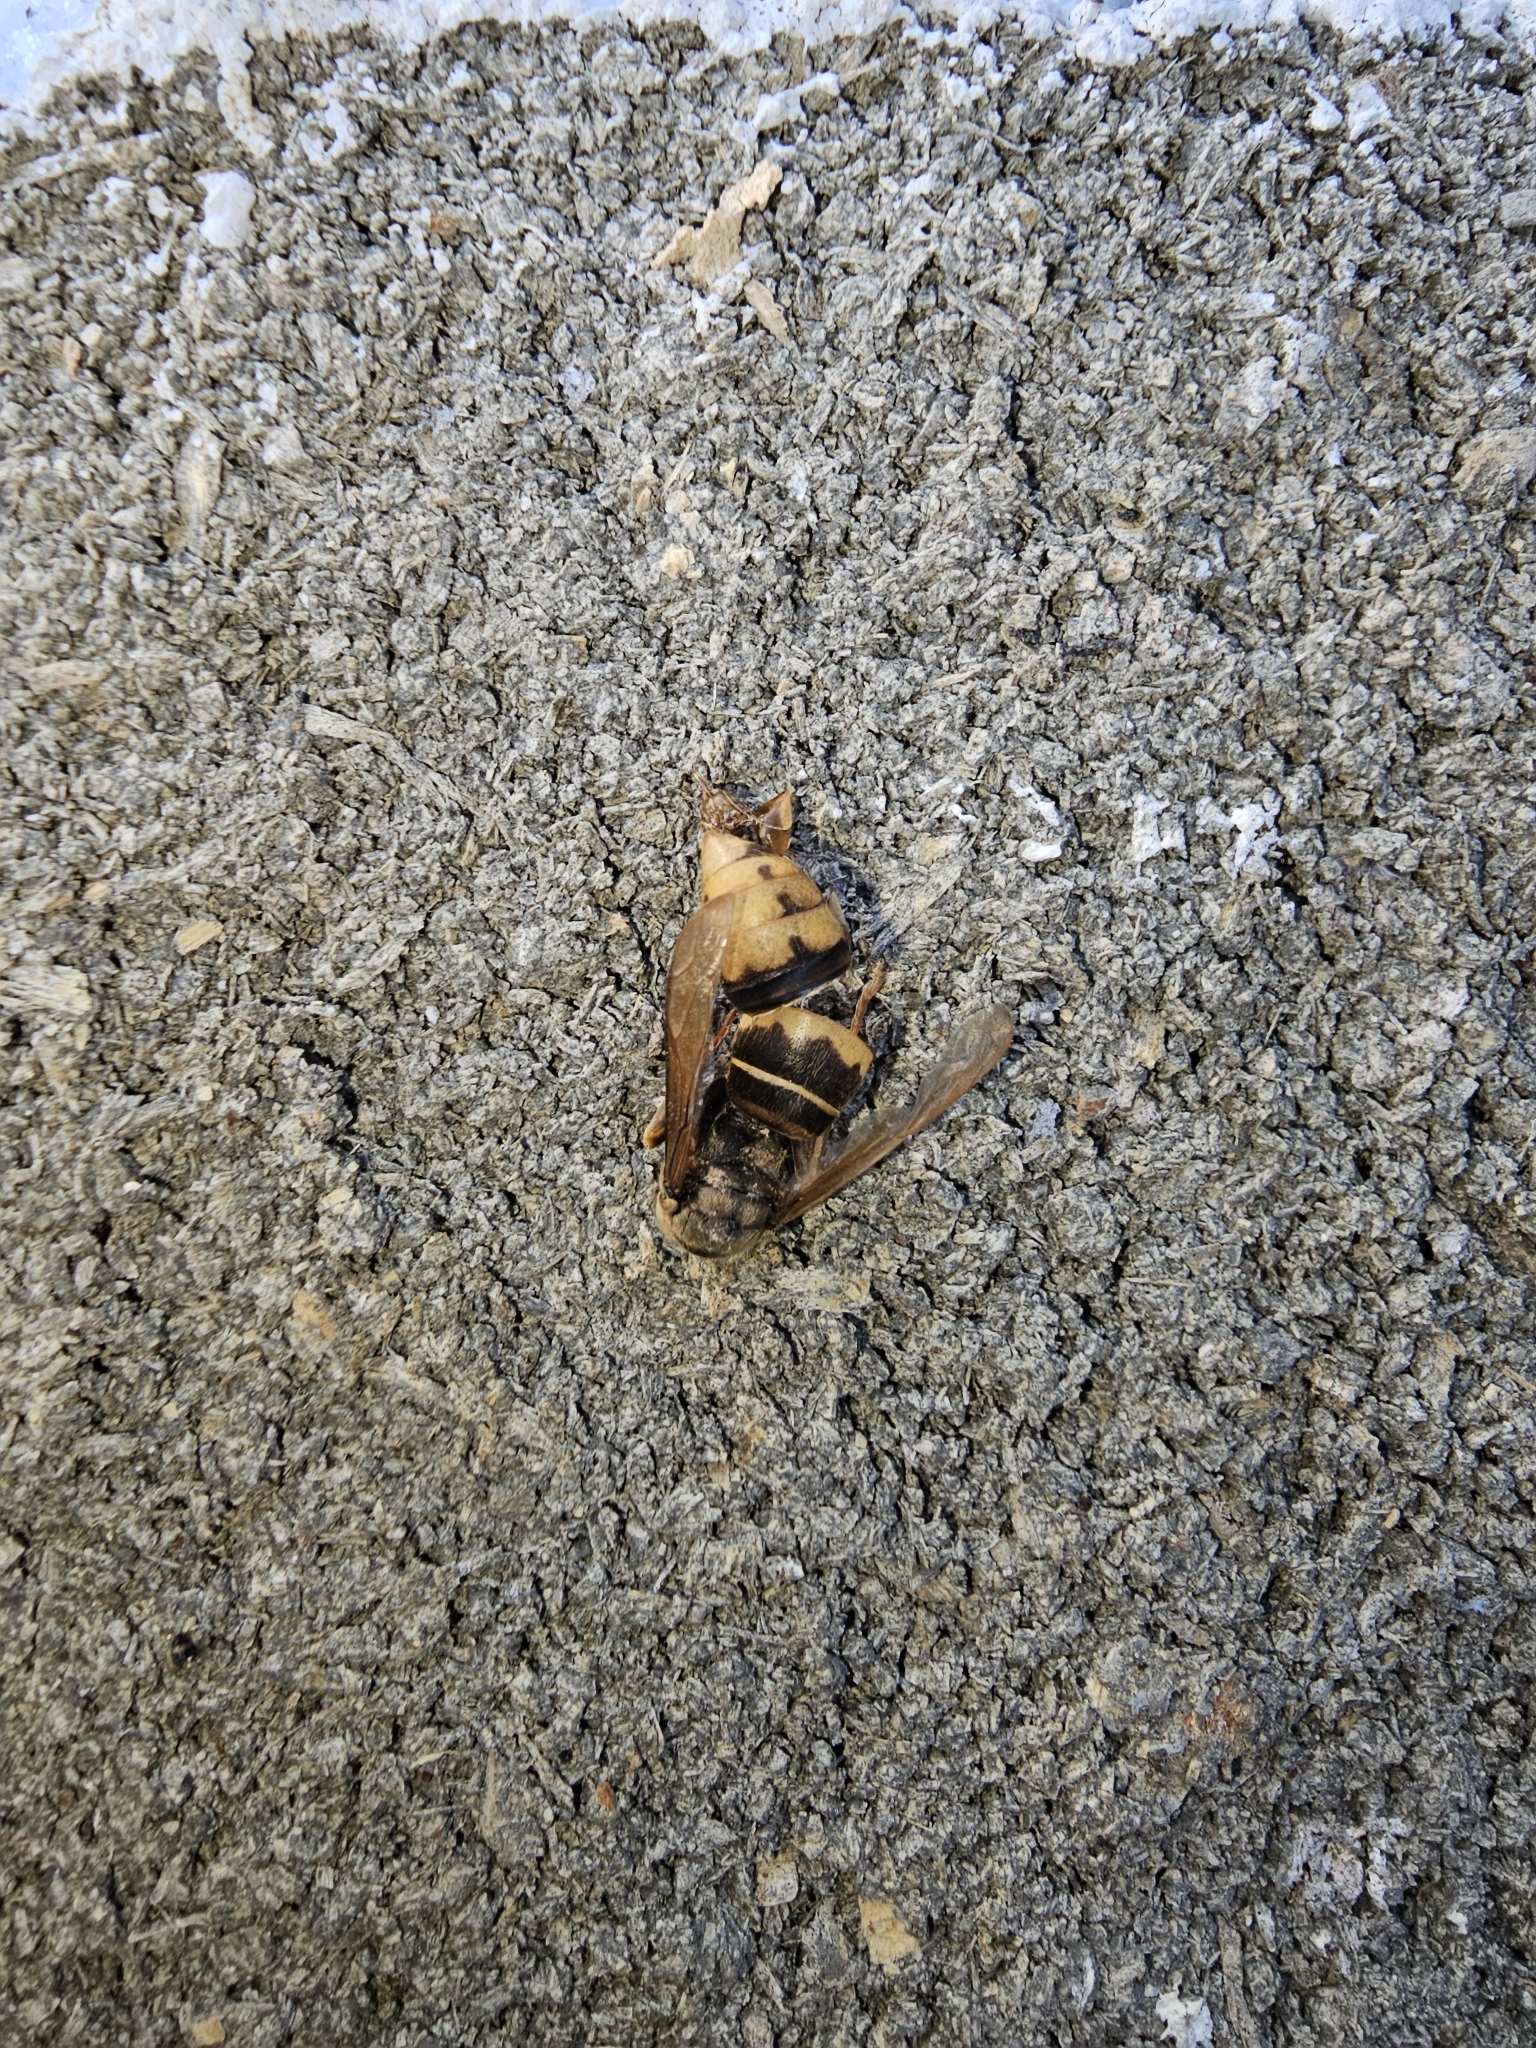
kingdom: Animalia
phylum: Arthropoda
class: Insecta
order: Hymenoptera
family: Vespidae
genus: Vespa
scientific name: Vespa crabro
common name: Hornet
